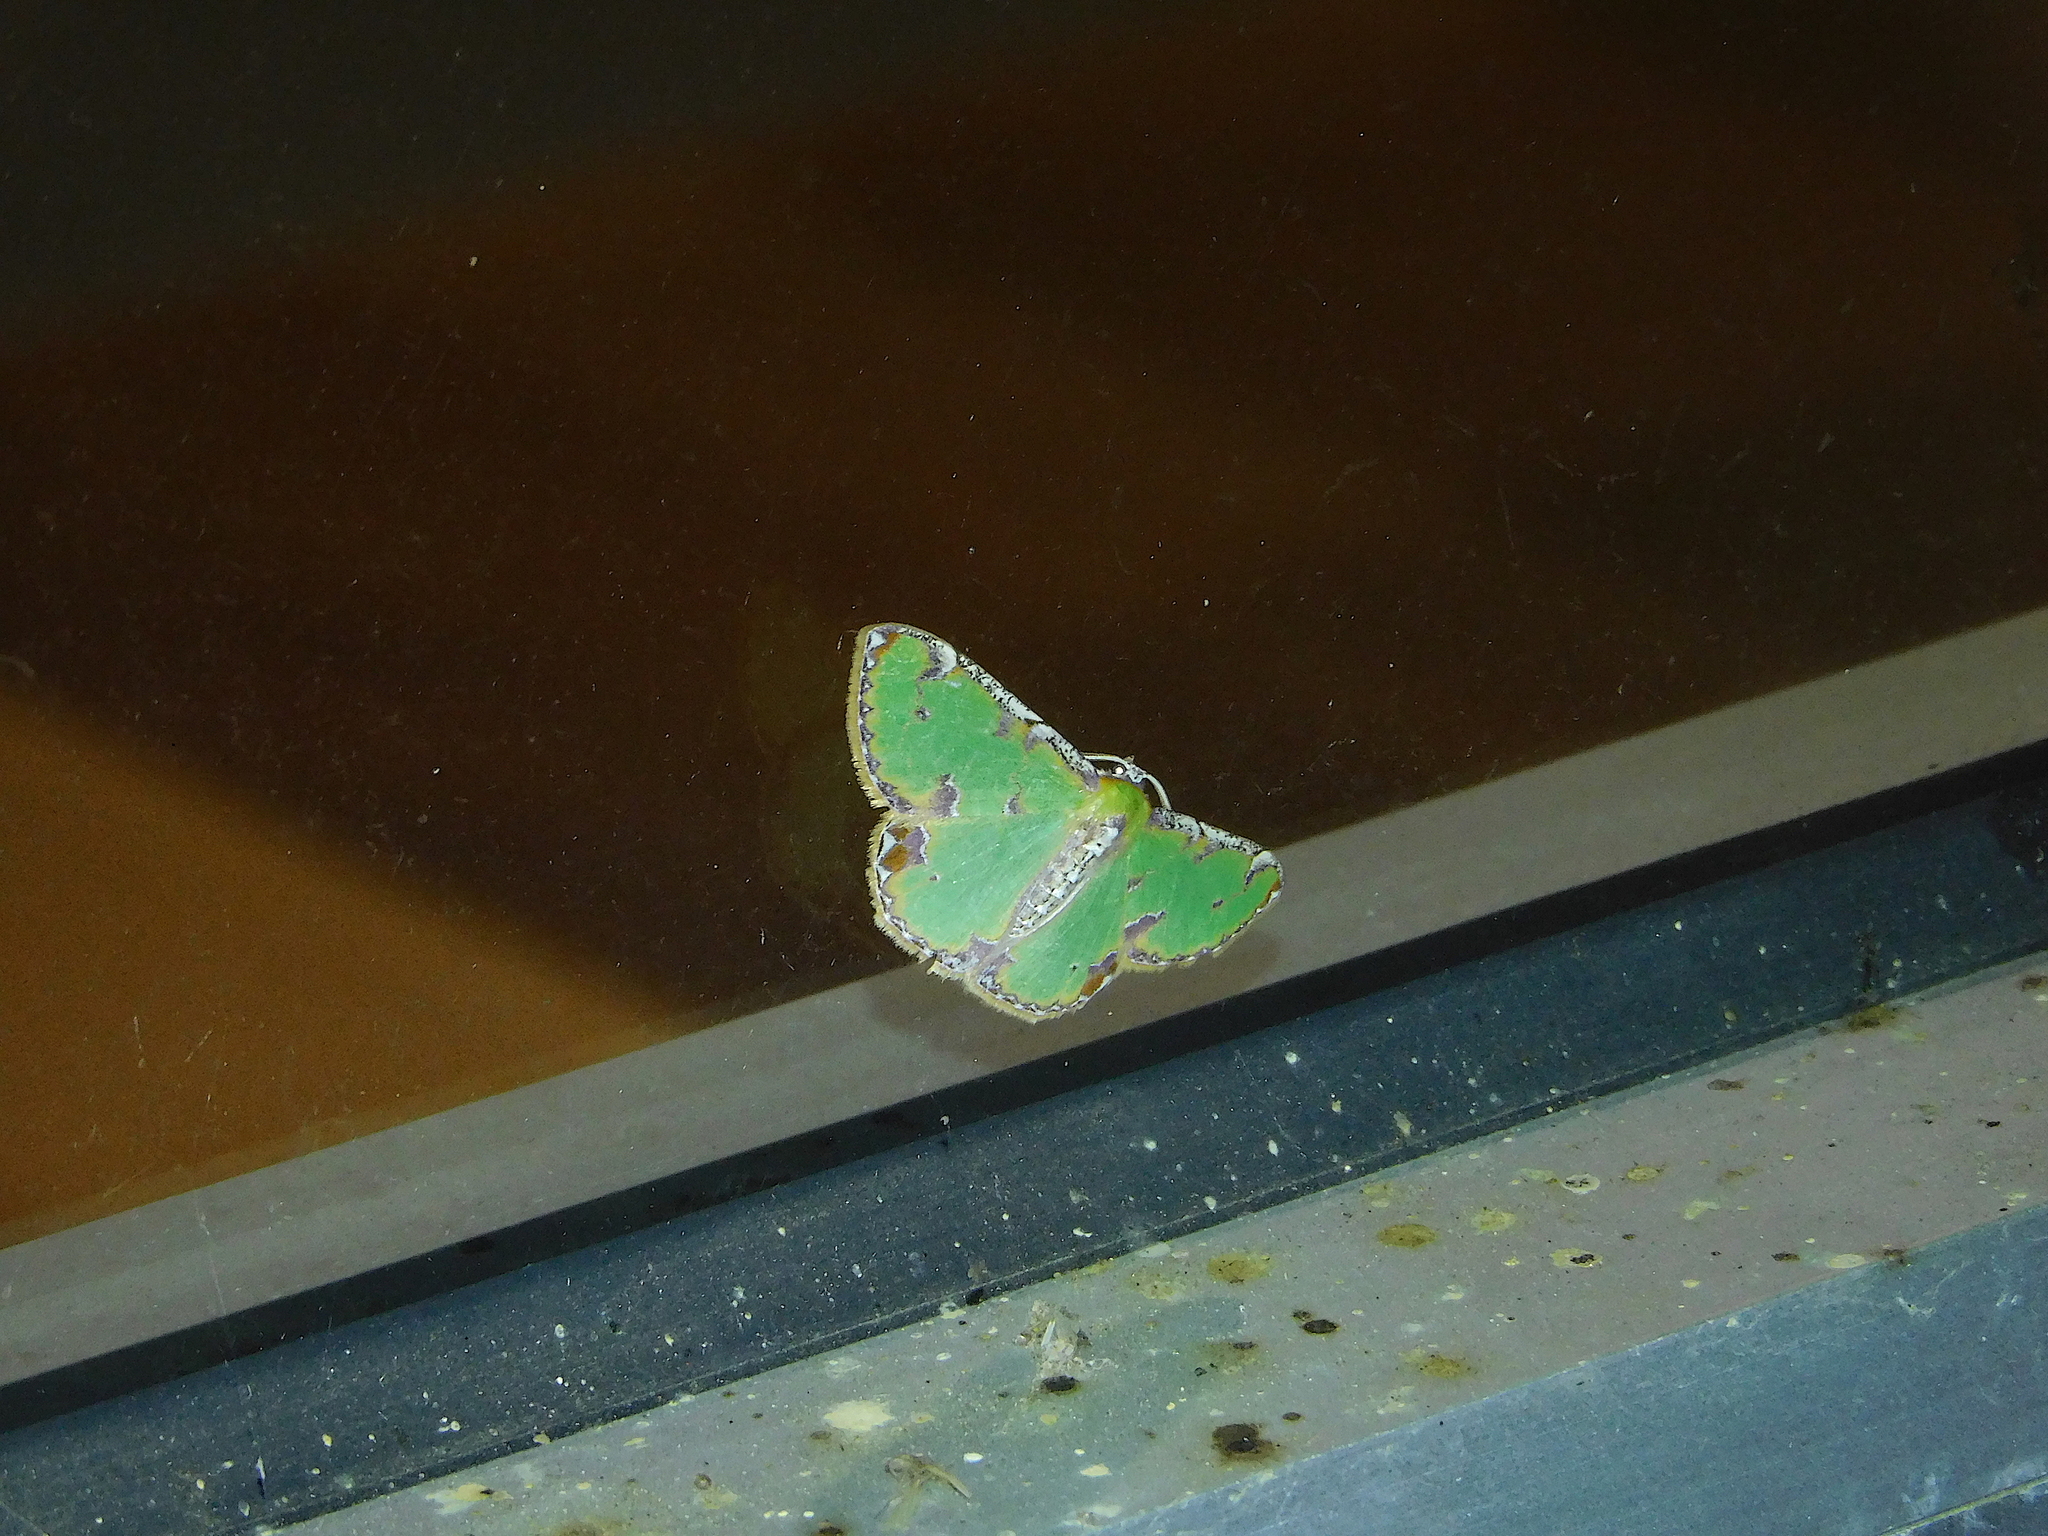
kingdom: Animalia
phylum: Arthropoda
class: Insecta
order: Lepidoptera
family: Geometridae
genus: Eucyclodes
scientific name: Eucyclodes buprestaria
